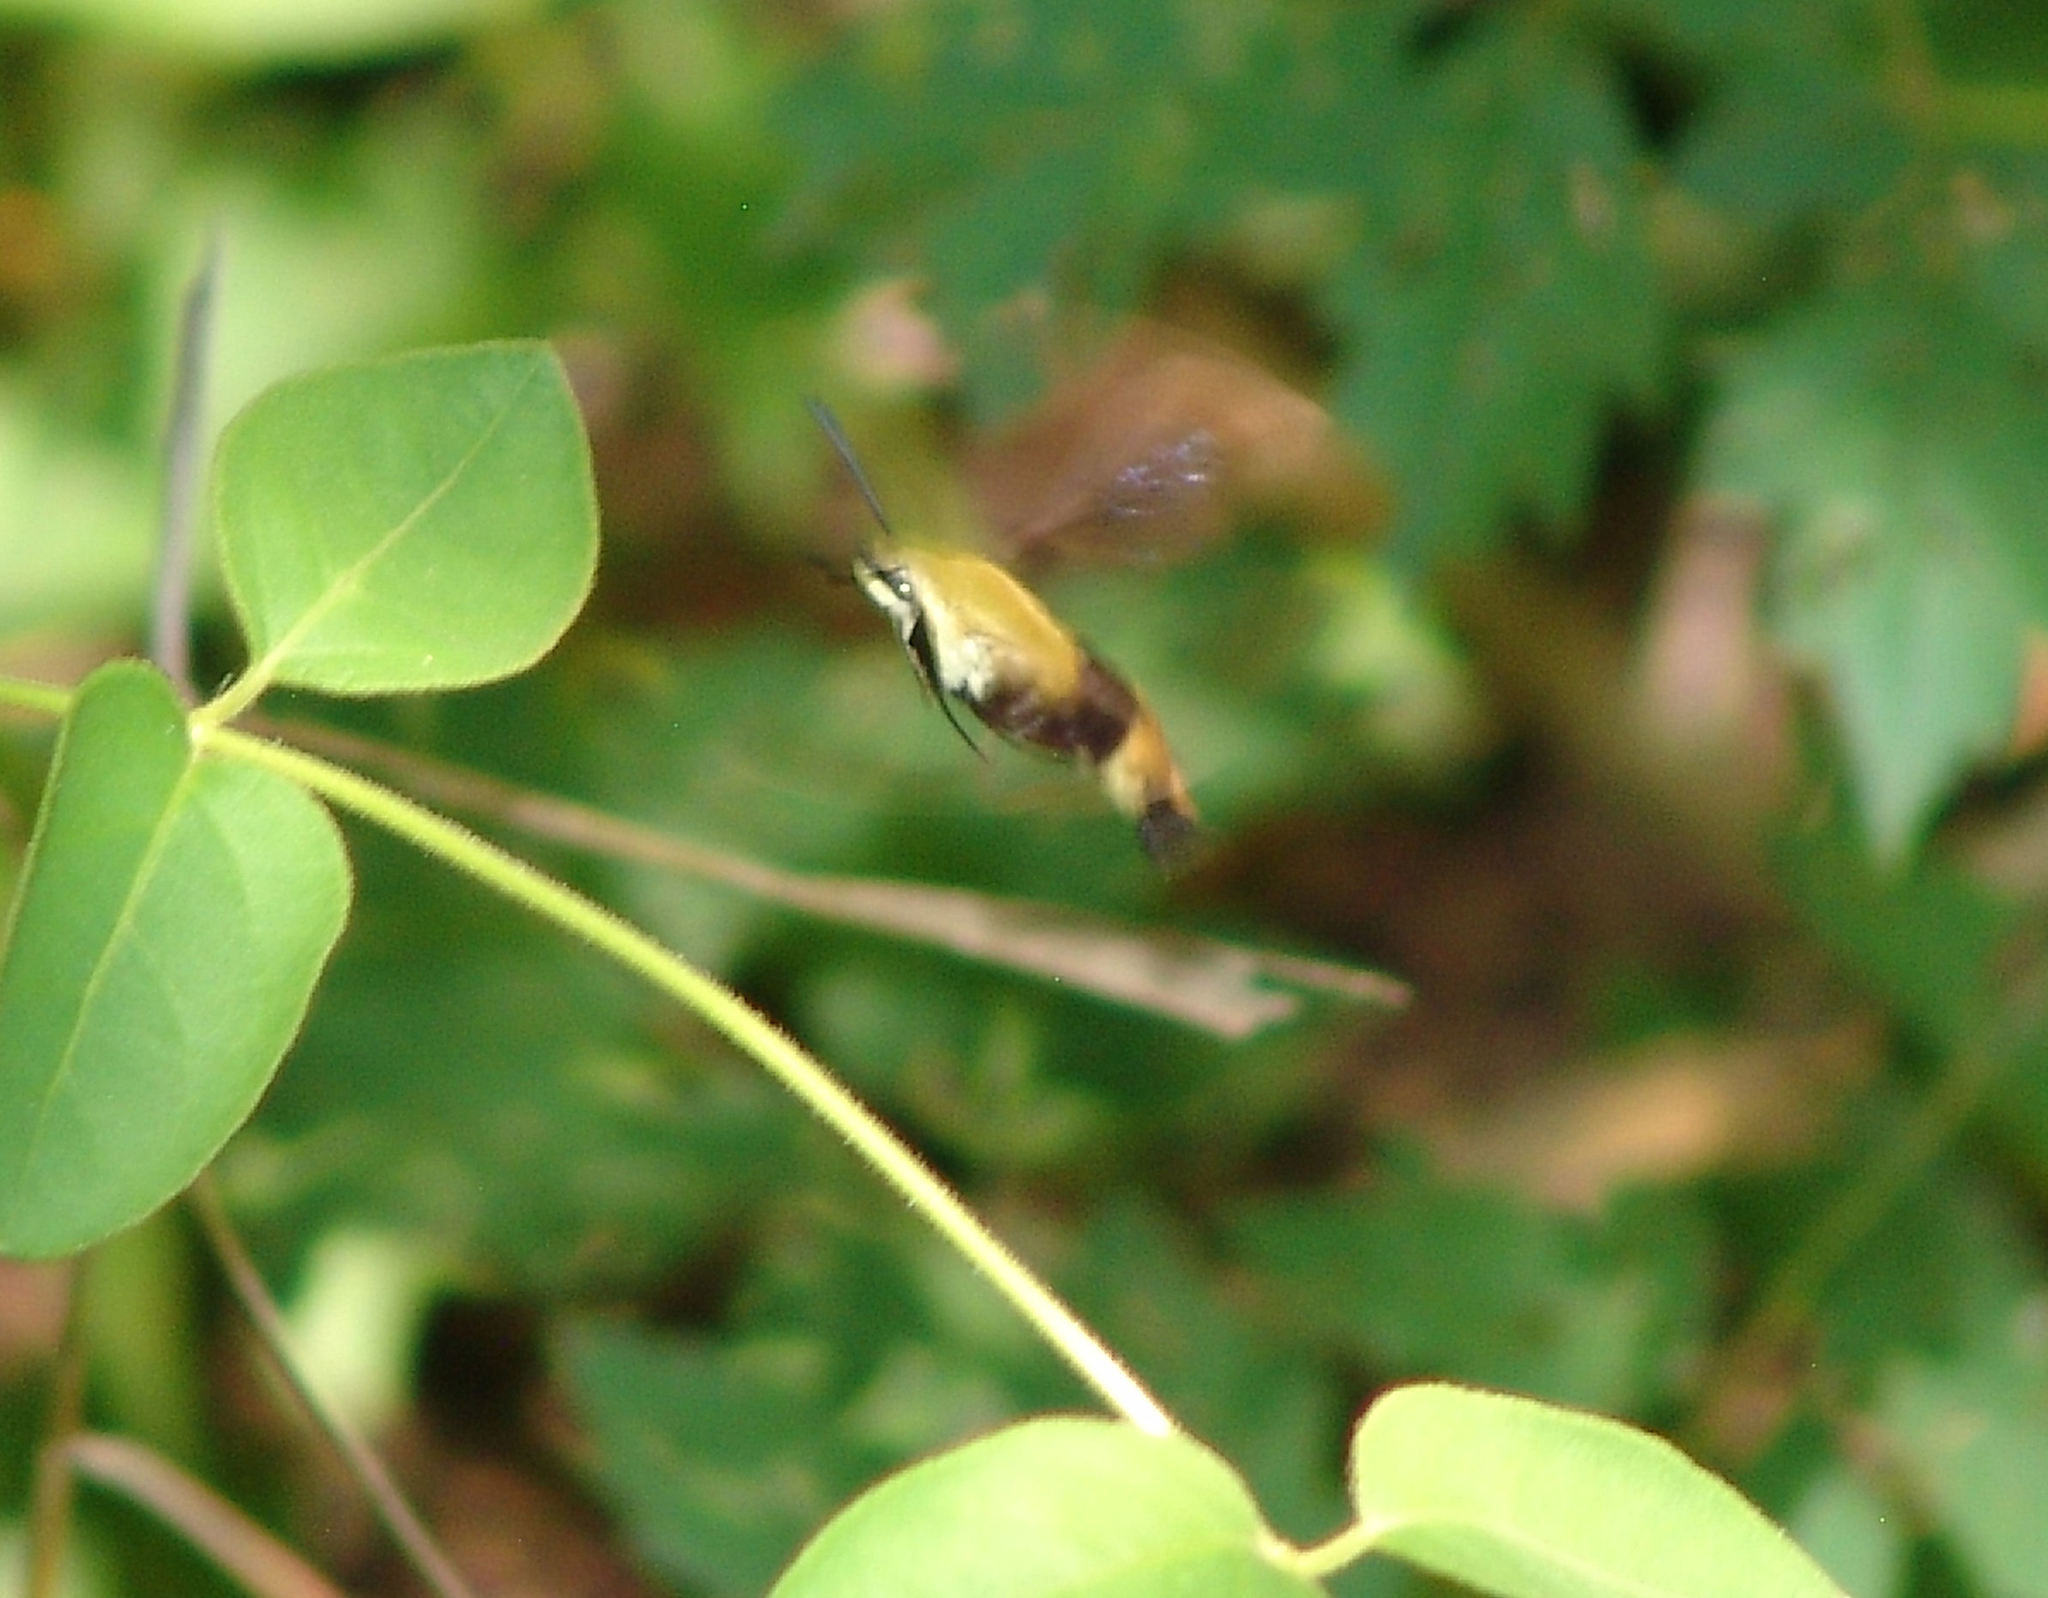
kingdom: Animalia
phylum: Arthropoda
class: Insecta
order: Lepidoptera
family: Sphingidae
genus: Hemaris
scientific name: Hemaris diffinis
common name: Bumblebee moth
